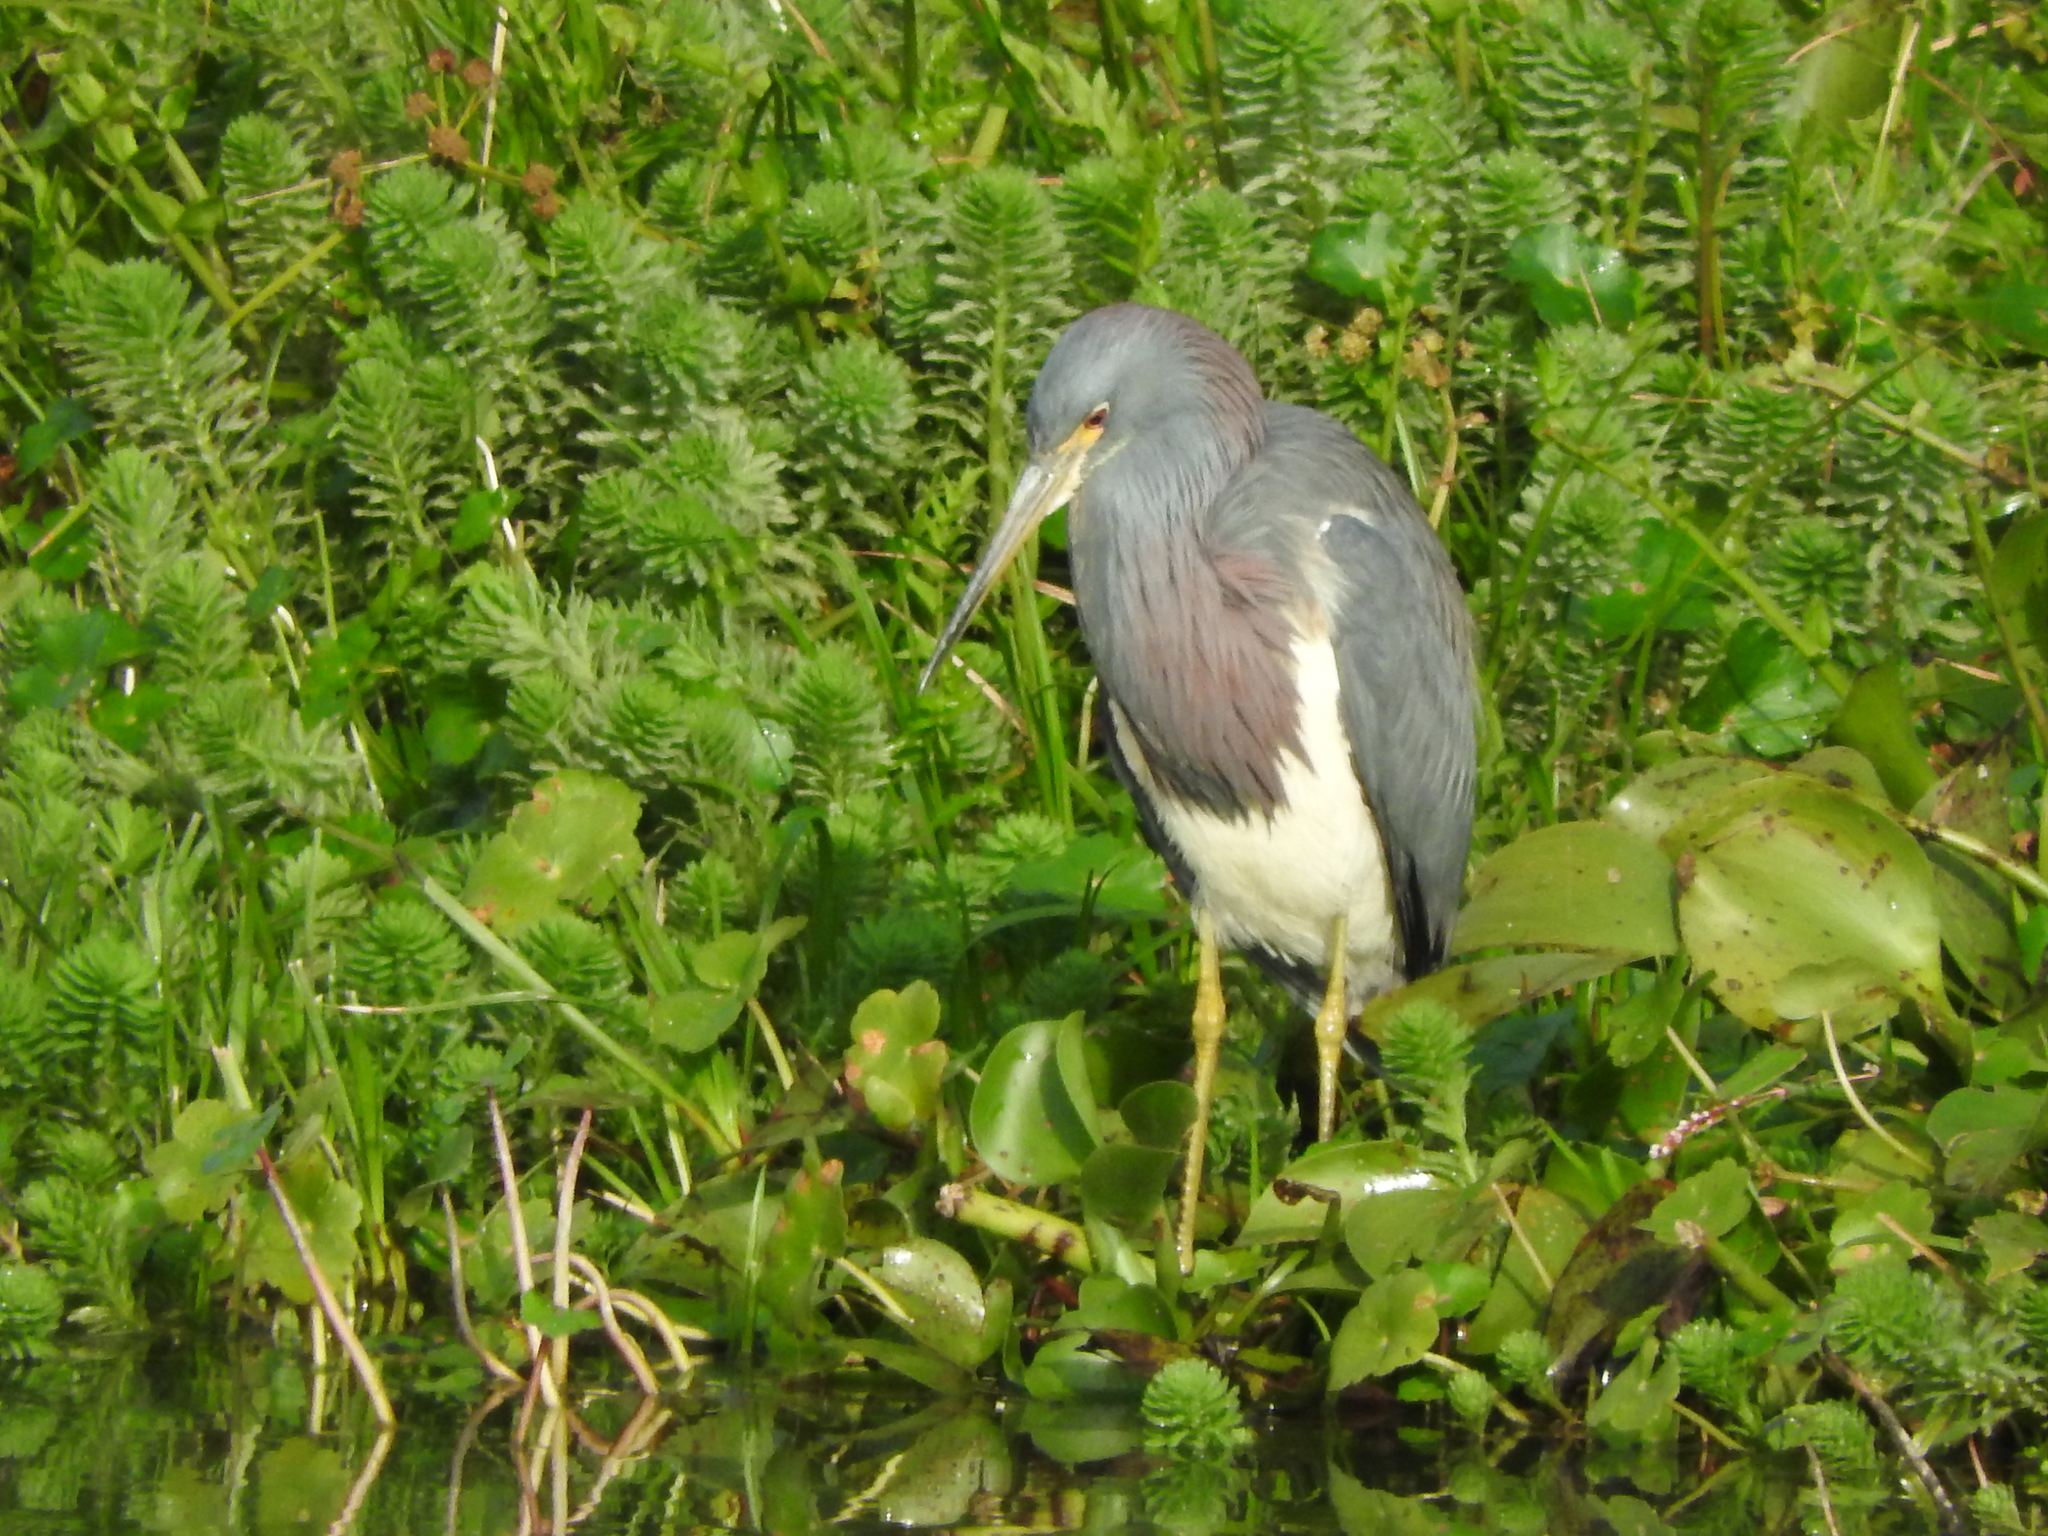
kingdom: Animalia
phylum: Chordata
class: Aves
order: Pelecaniformes
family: Ardeidae
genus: Egretta
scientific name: Egretta tricolor
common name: Tricolored heron
